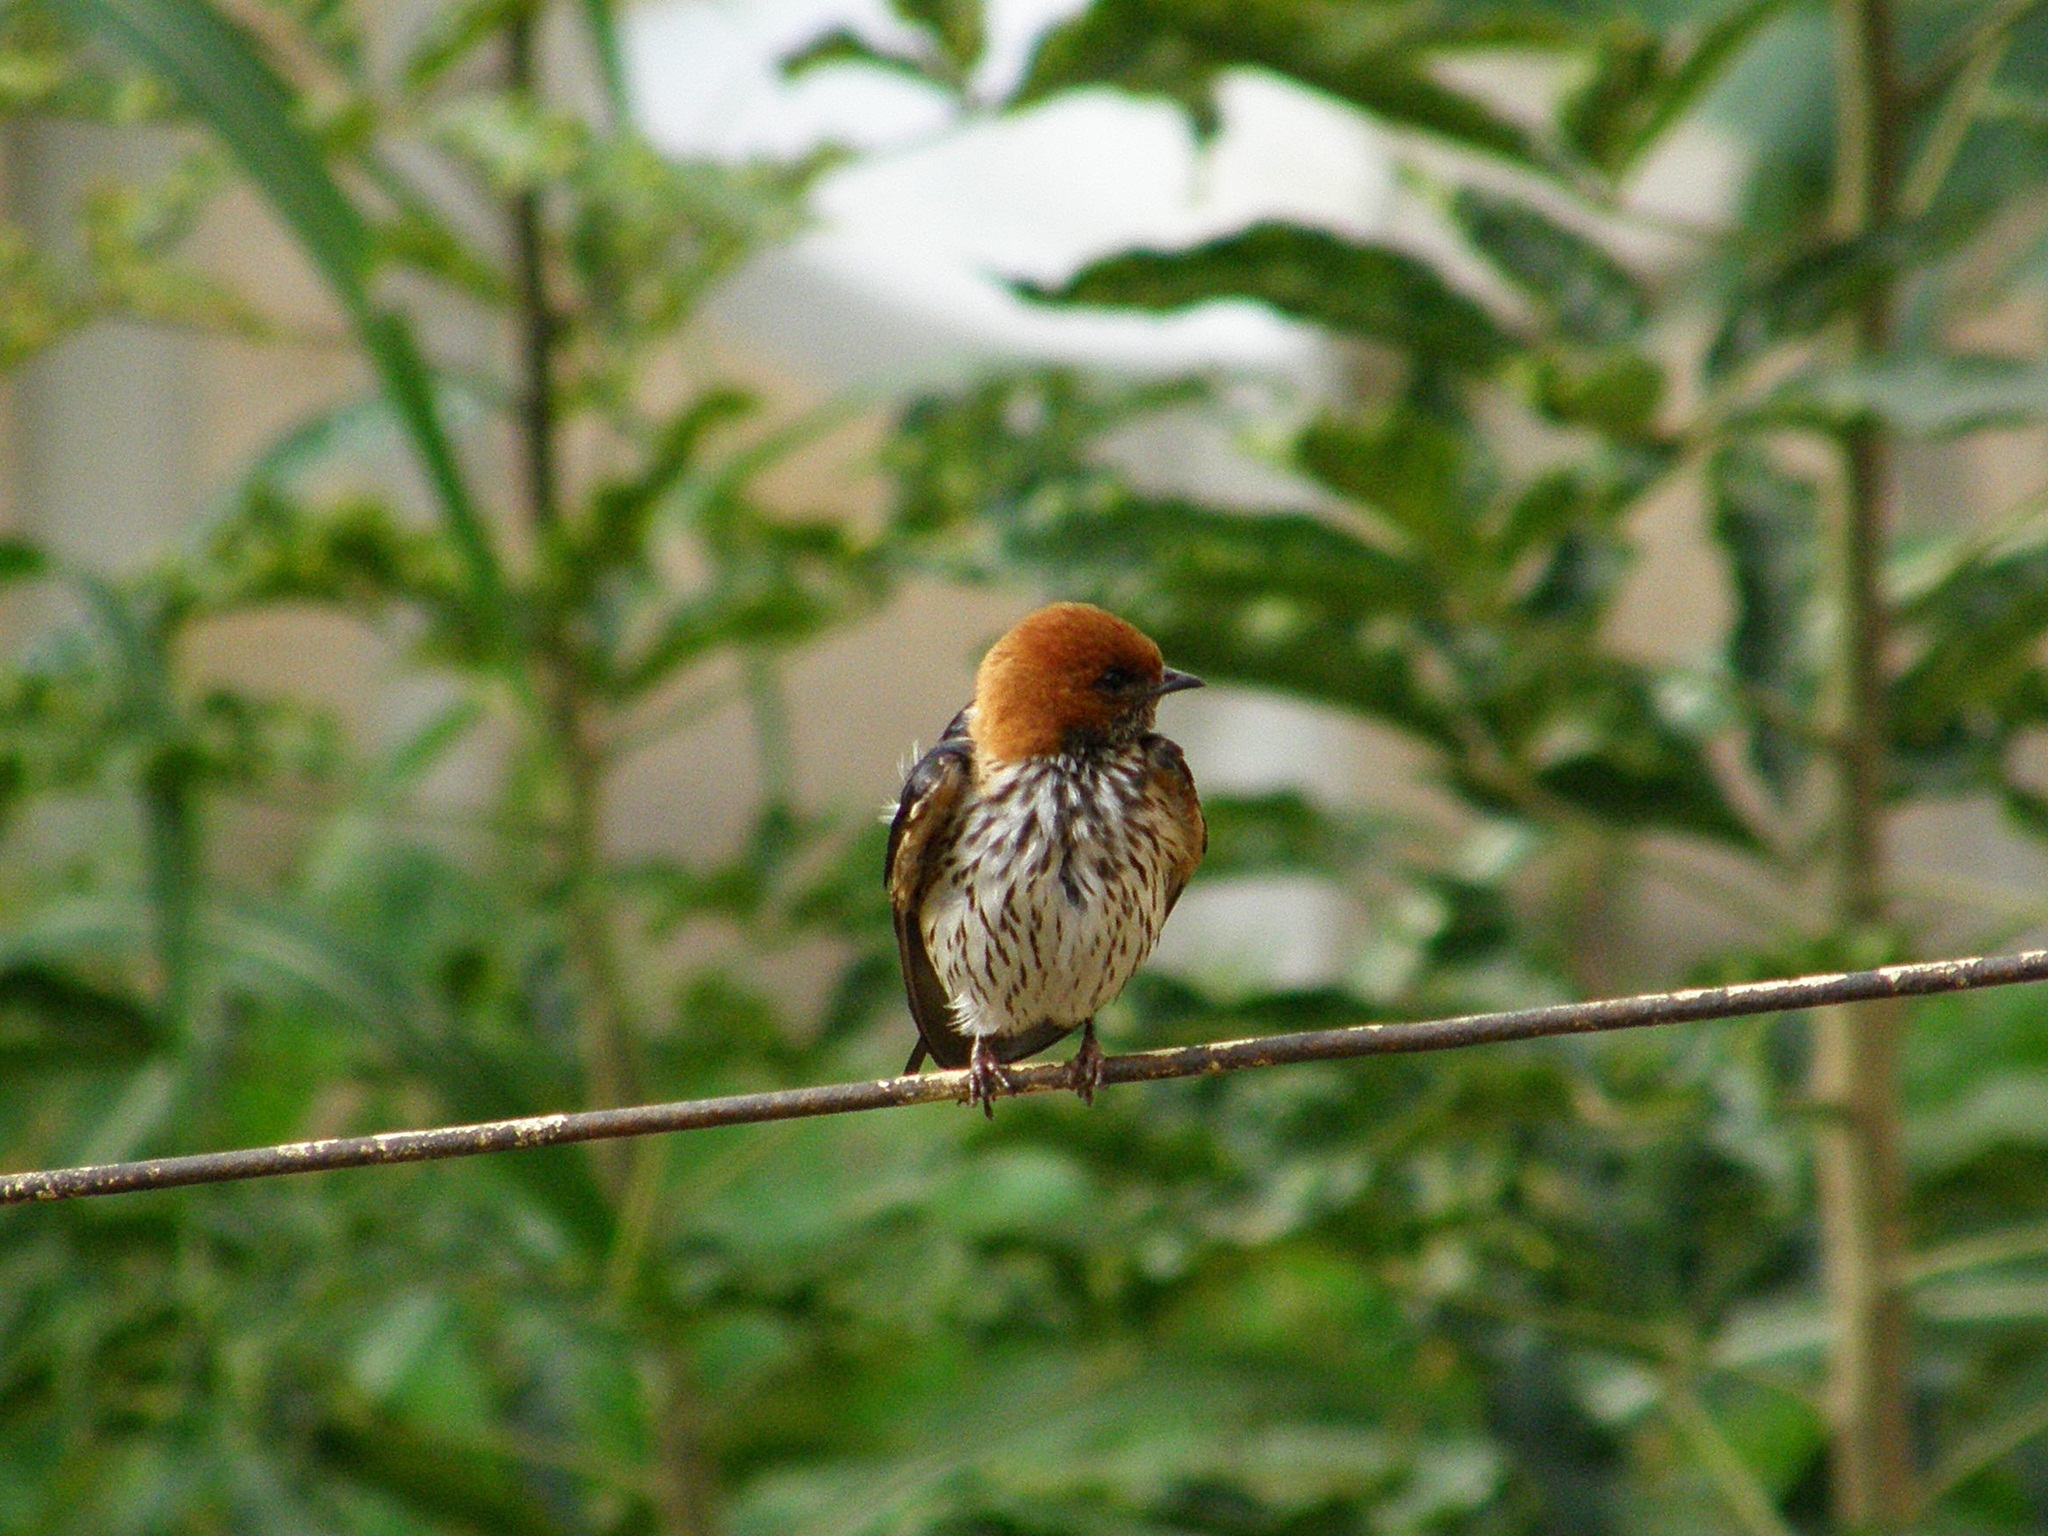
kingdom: Animalia
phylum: Chordata
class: Aves
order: Passeriformes
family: Hirundinidae
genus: Cecropis
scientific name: Cecropis abyssinica
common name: Lesser striped-swallow
